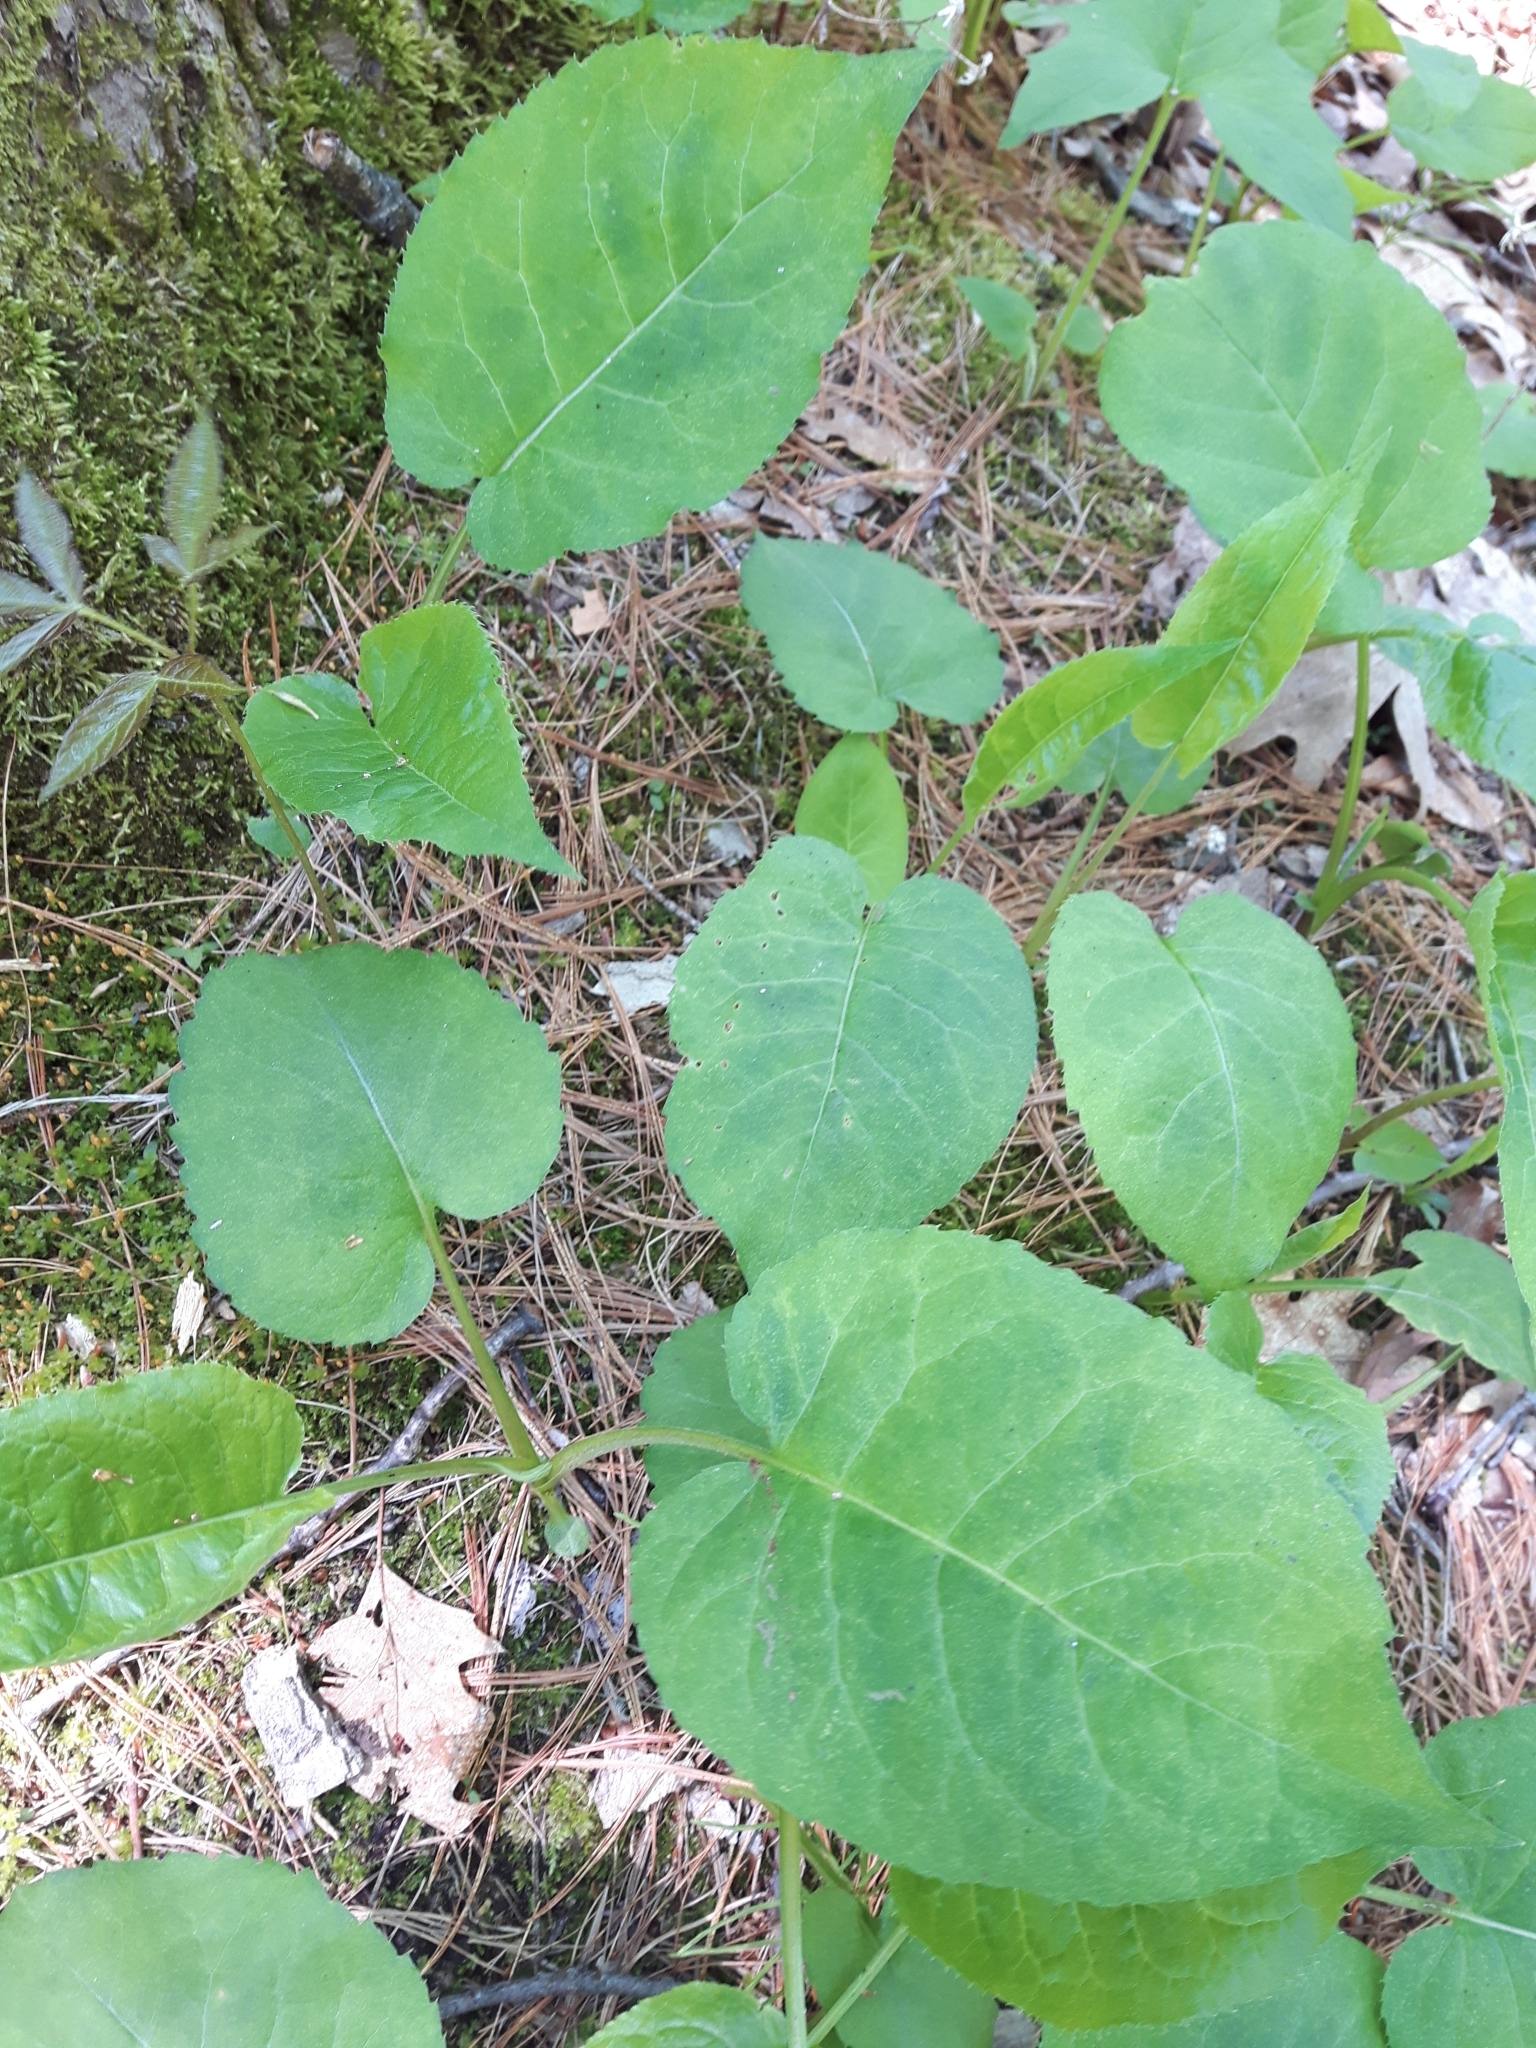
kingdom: Plantae
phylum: Tracheophyta
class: Magnoliopsida
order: Asterales
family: Asteraceae
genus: Eurybia
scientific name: Eurybia macrophylla
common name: Big-leaved aster
